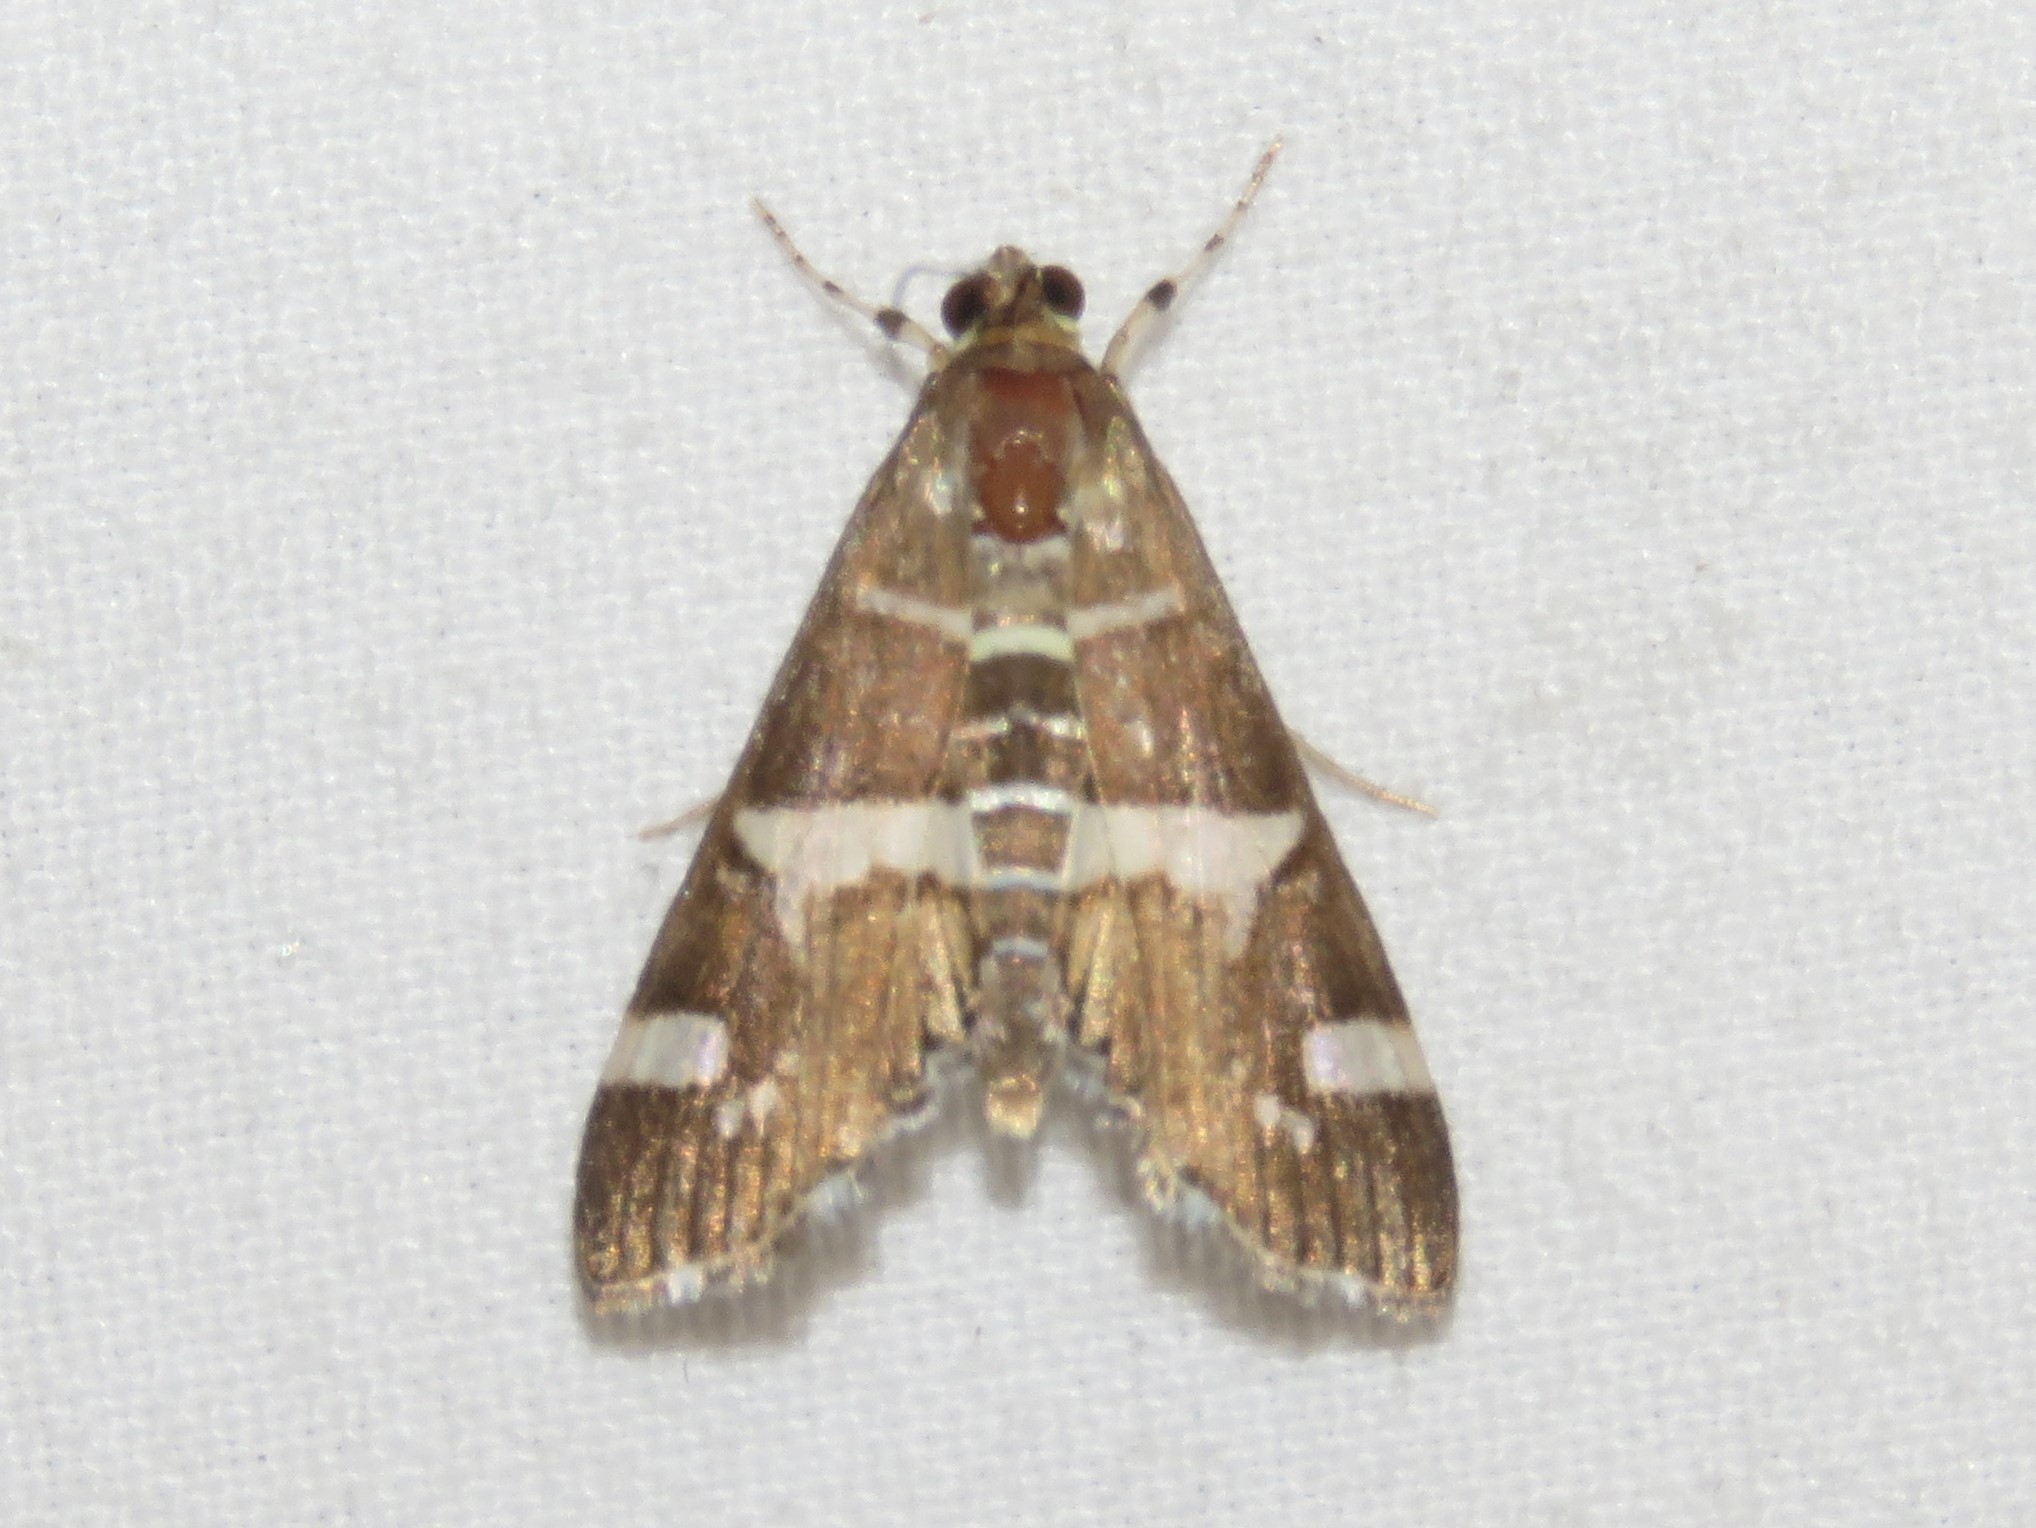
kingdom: Animalia
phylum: Arthropoda
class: Insecta
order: Lepidoptera
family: Crambidae
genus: Spoladea
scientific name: Spoladea recurvalis
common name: Beet webworm moth
